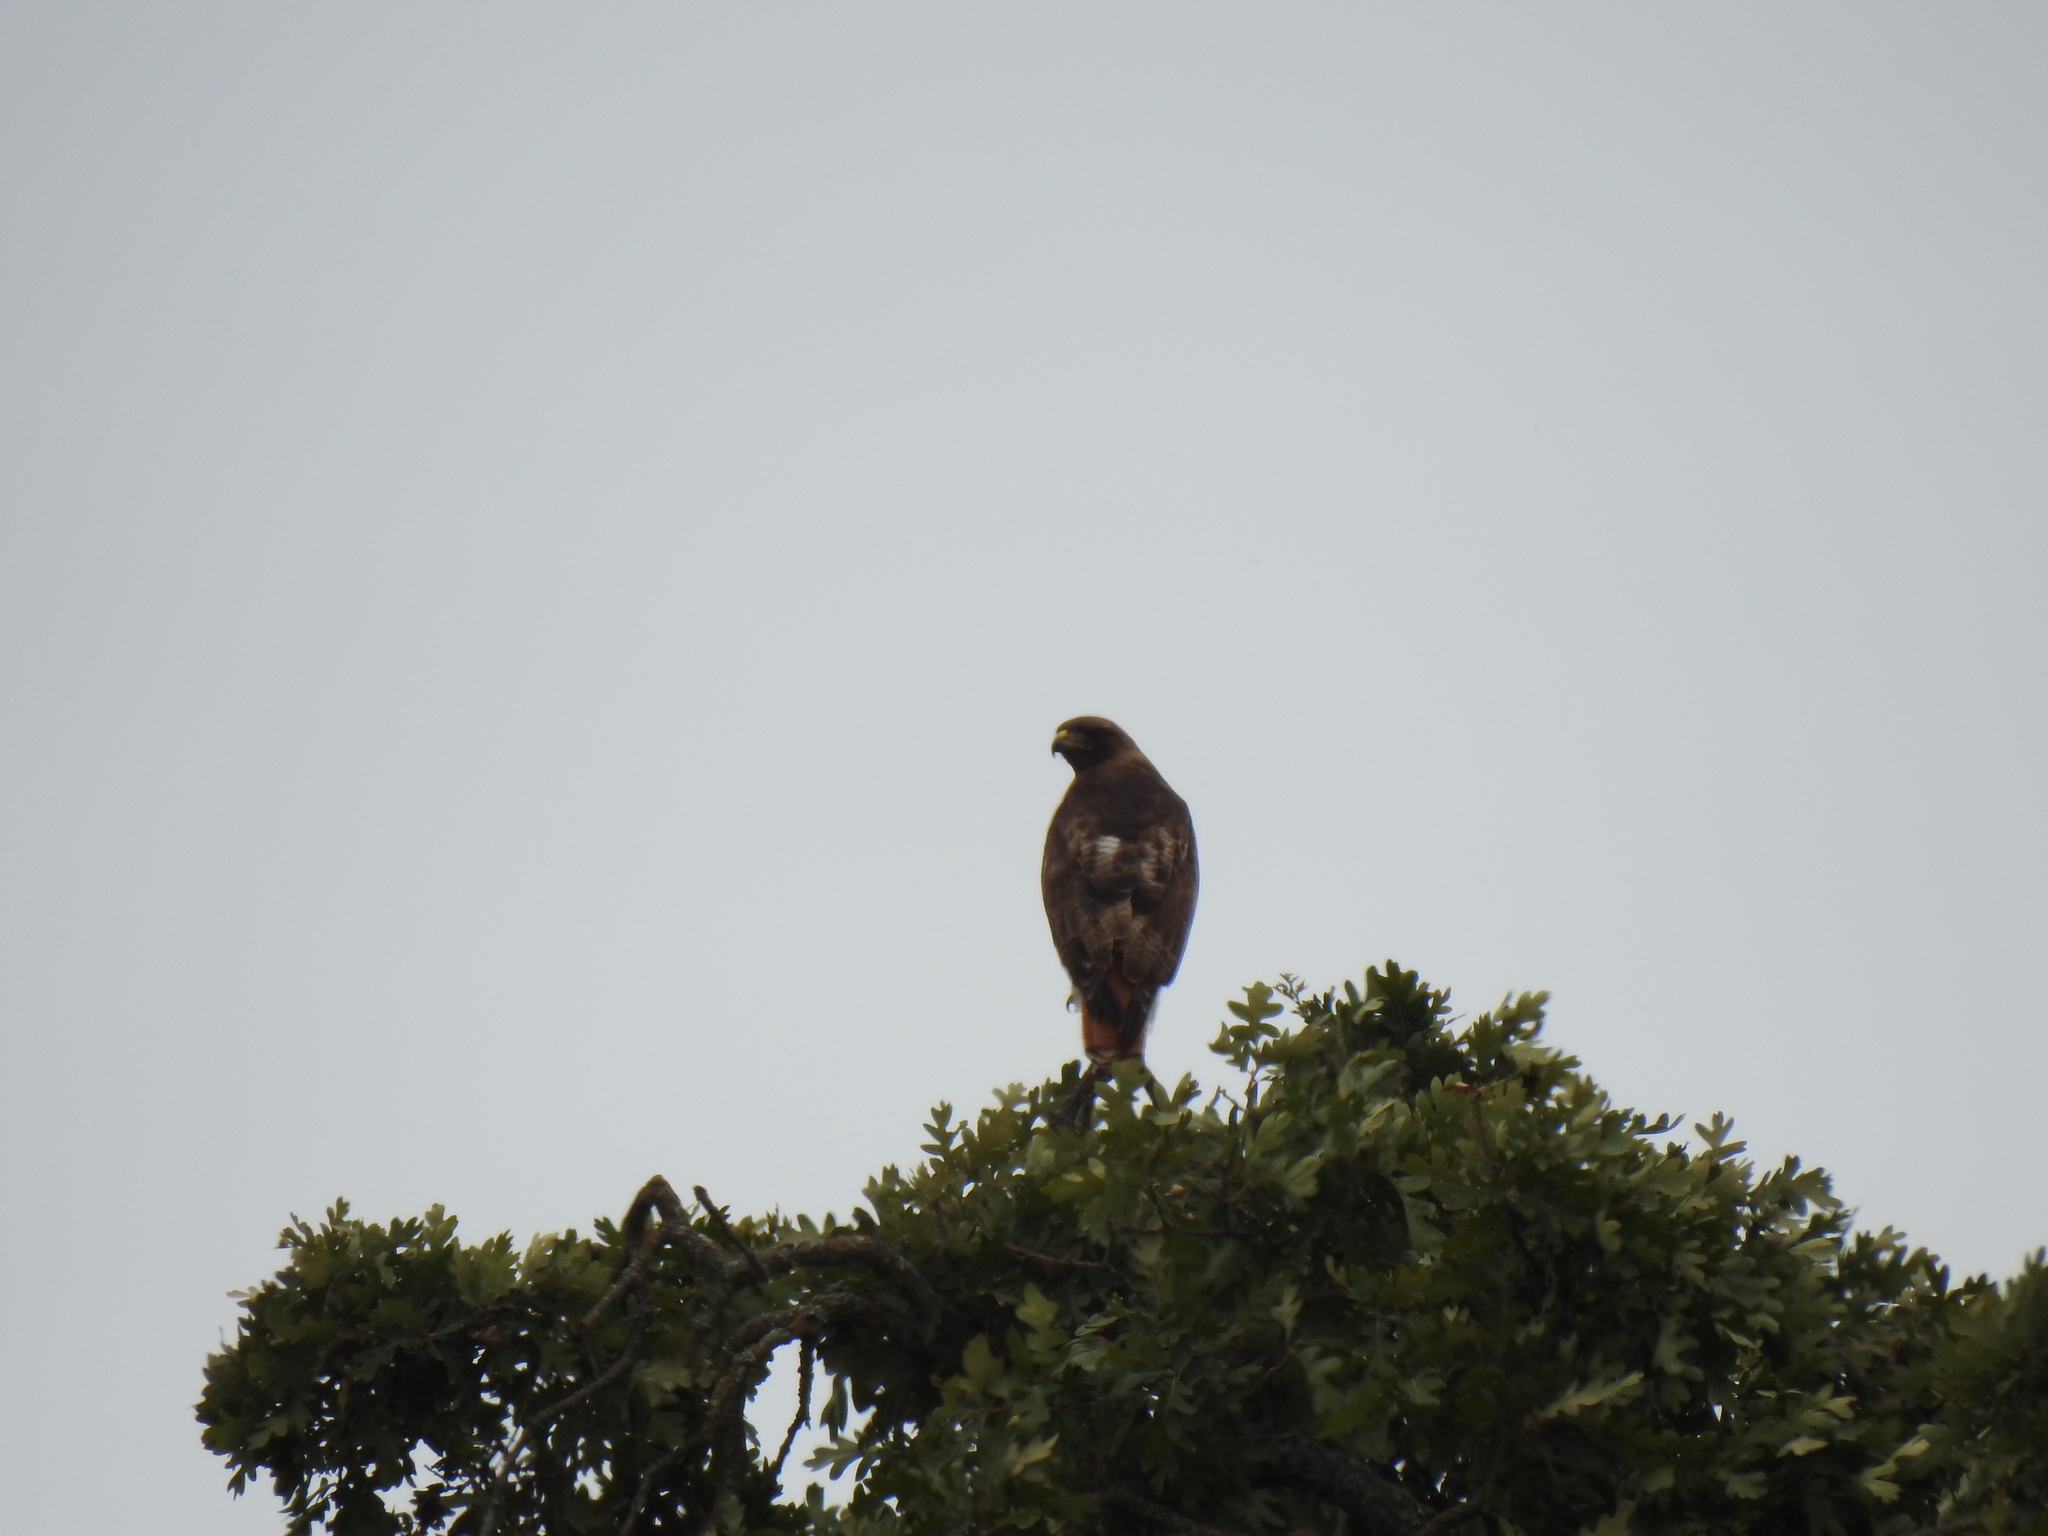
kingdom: Animalia
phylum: Chordata
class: Aves
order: Accipitriformes
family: Accipitridae
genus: Buteo
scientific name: Buteo jamaicensis
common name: Red-tailed hawk
